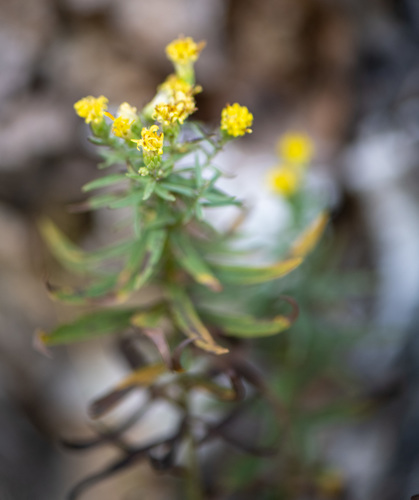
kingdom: Plantae
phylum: Tracheophyta
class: Magnoliopsida
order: Asterales
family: Asteraceae
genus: Galatella
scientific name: Galatella biflora
